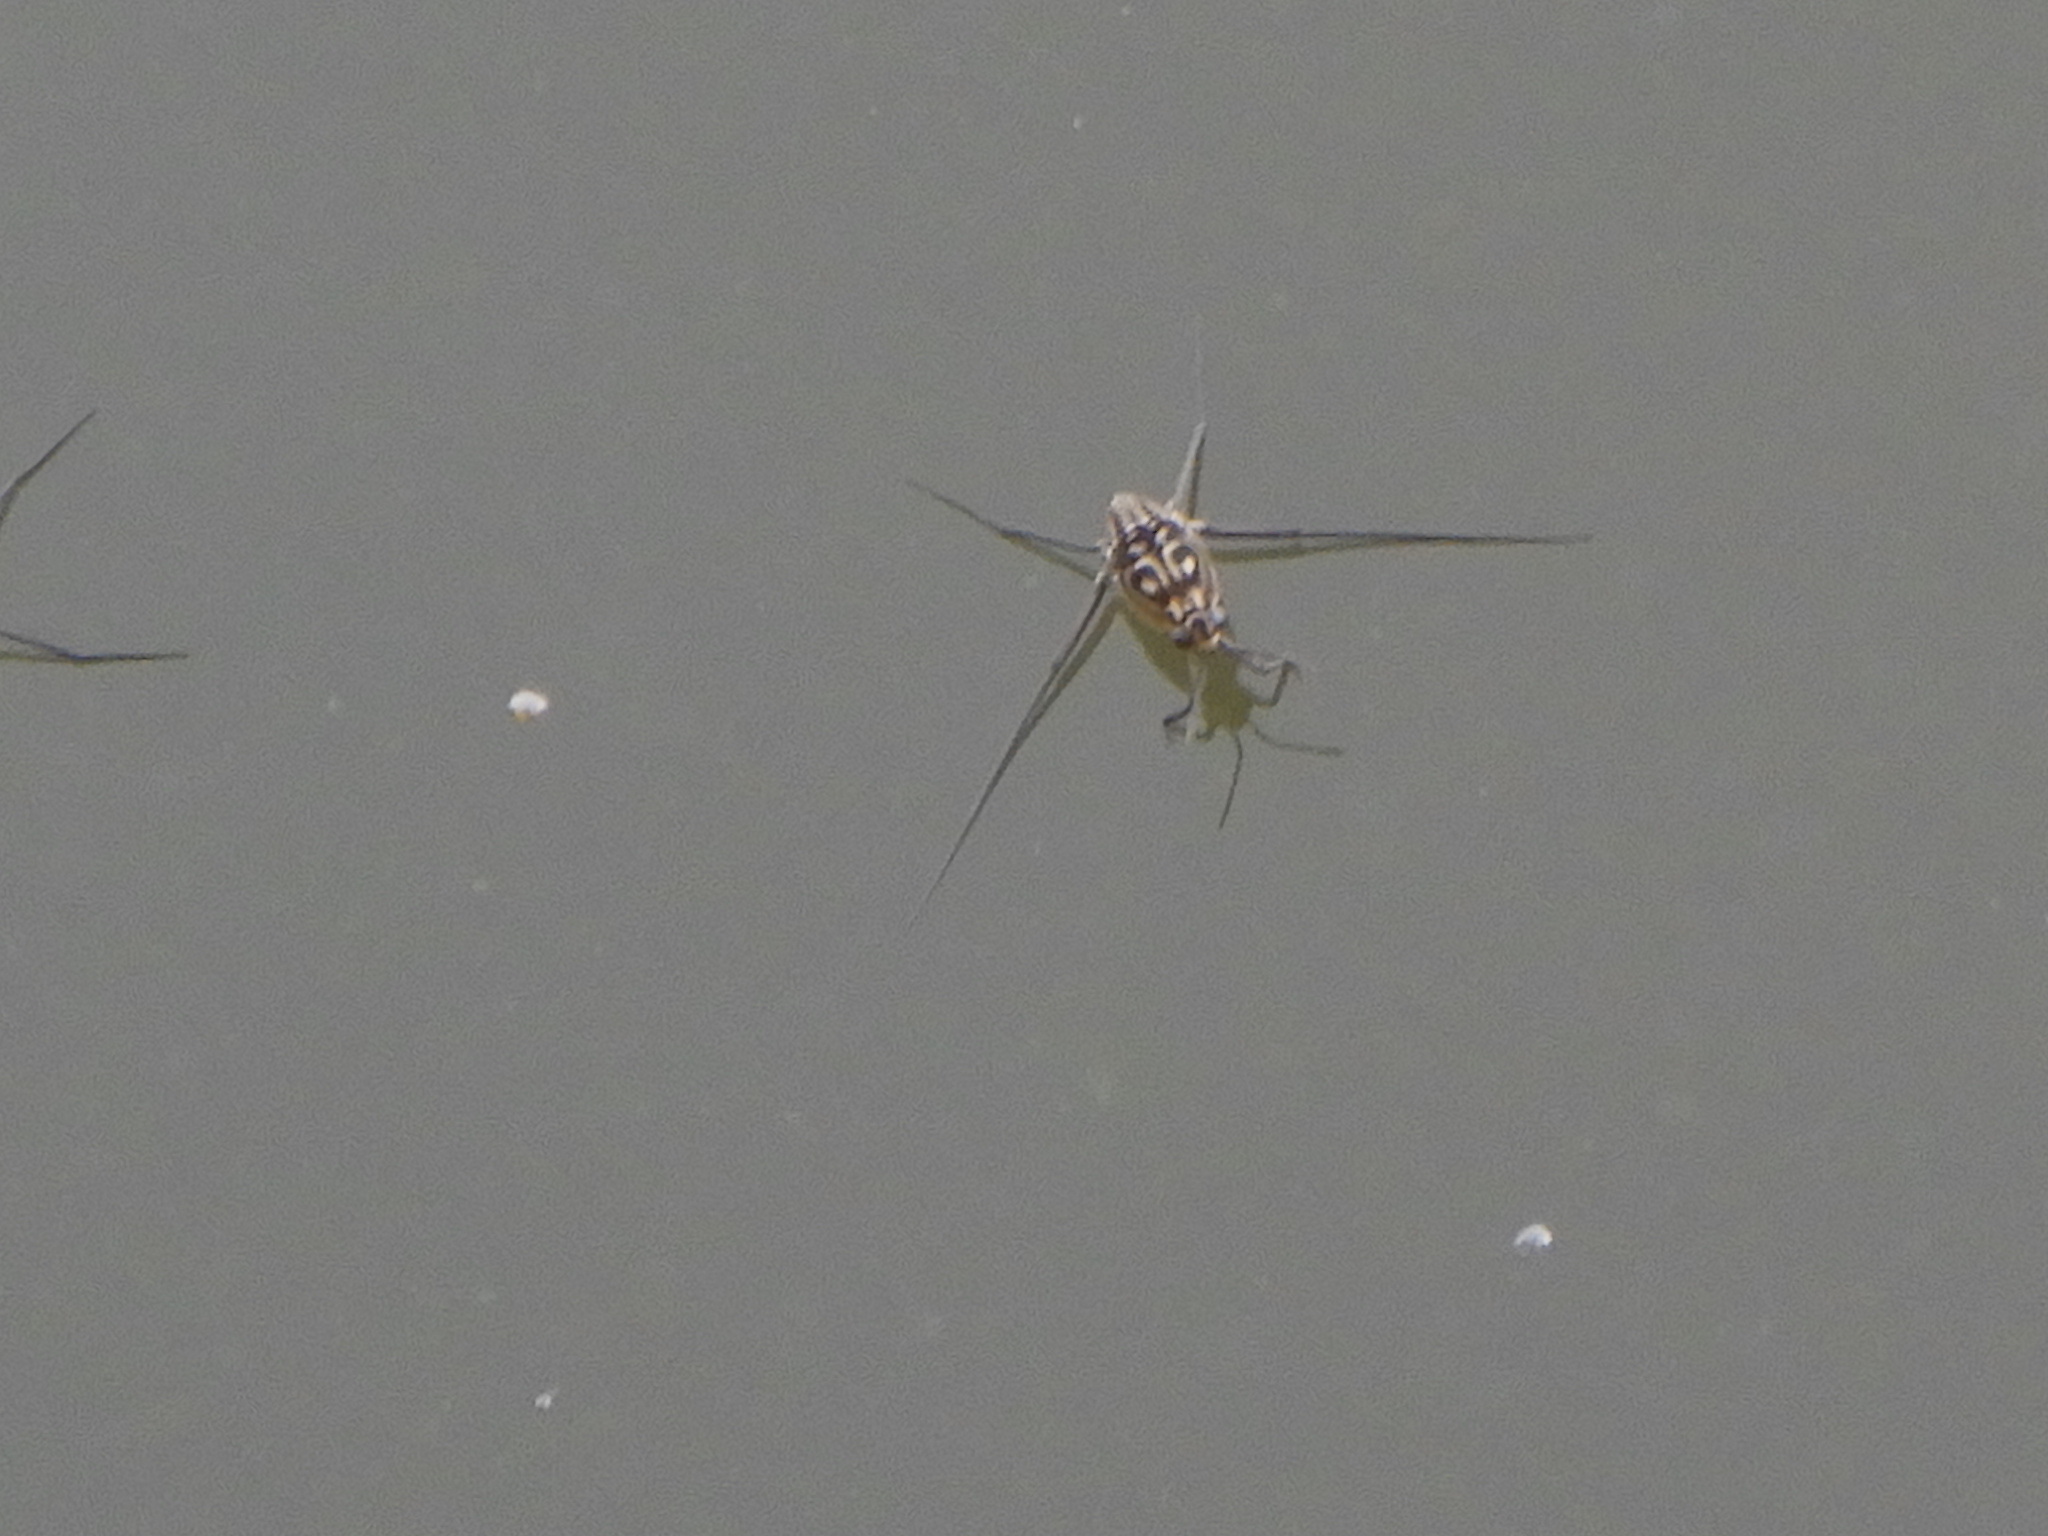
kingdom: Animalia
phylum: Arthropoda
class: Insecta
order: Hemiptera
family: Gerridae
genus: Trepobates
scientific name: Trepobates
